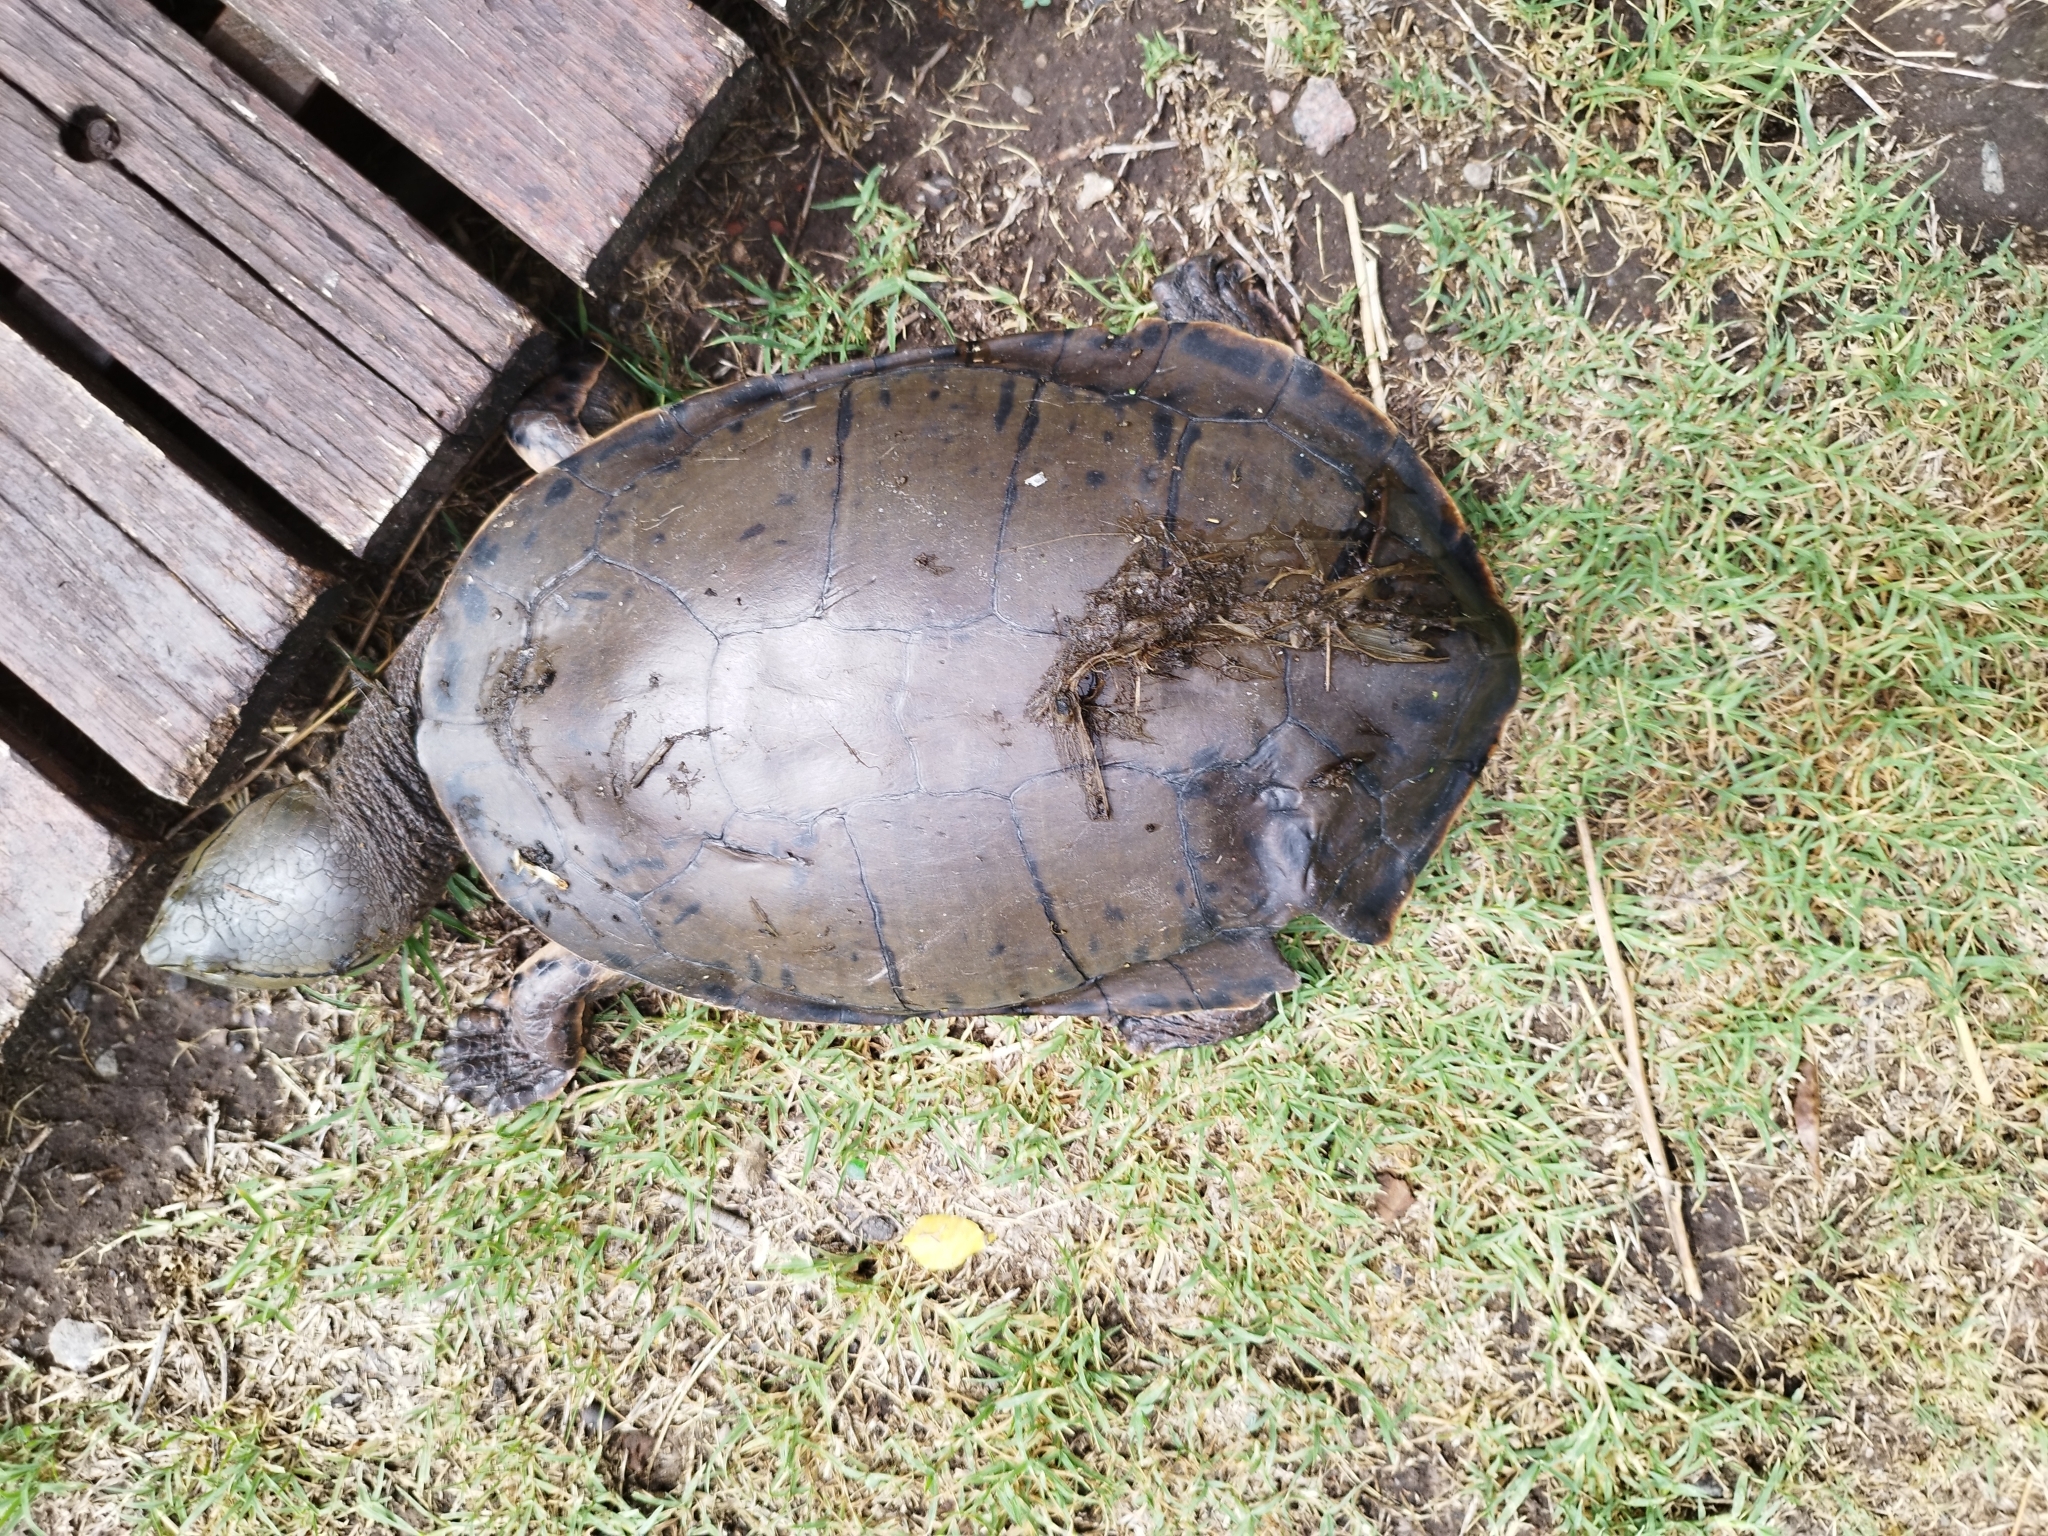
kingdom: Animalia
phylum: Chordata
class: Testudines
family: Chelidae
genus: Phrynops
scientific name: Phrynops hilarii
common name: Side-necked turtle of saint hillaire
